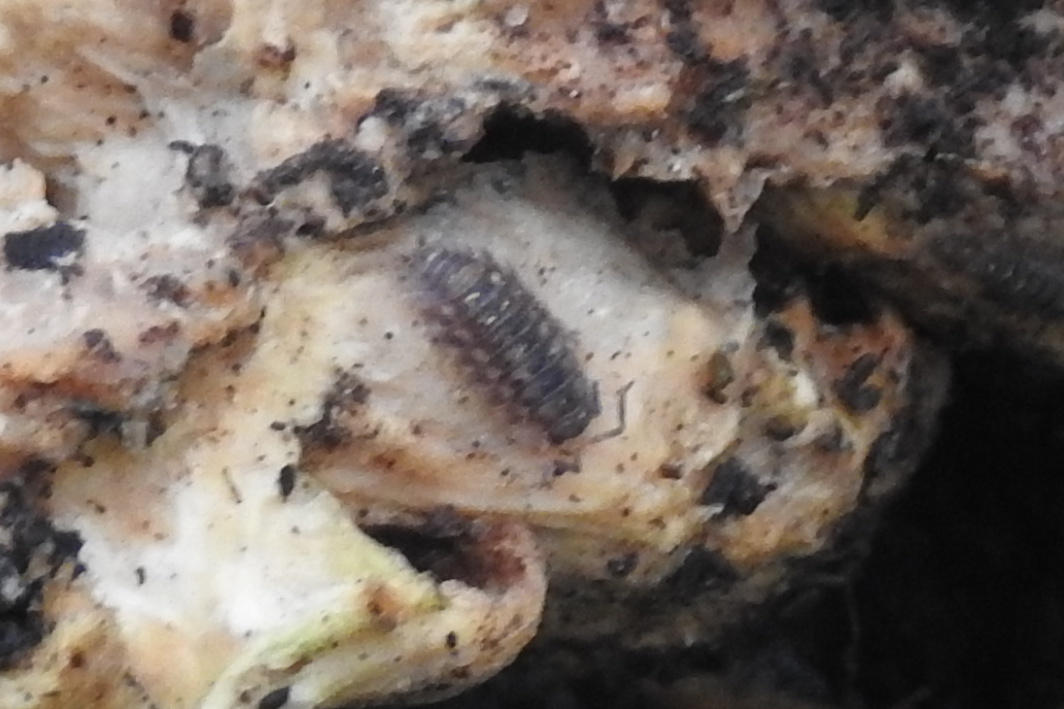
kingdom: Animalia
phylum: Arthropoda
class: Malacostraca
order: Isopoda
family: Oniscidae
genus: Oniscus
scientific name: Oniscus asellus
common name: Common shiny woodlouse
